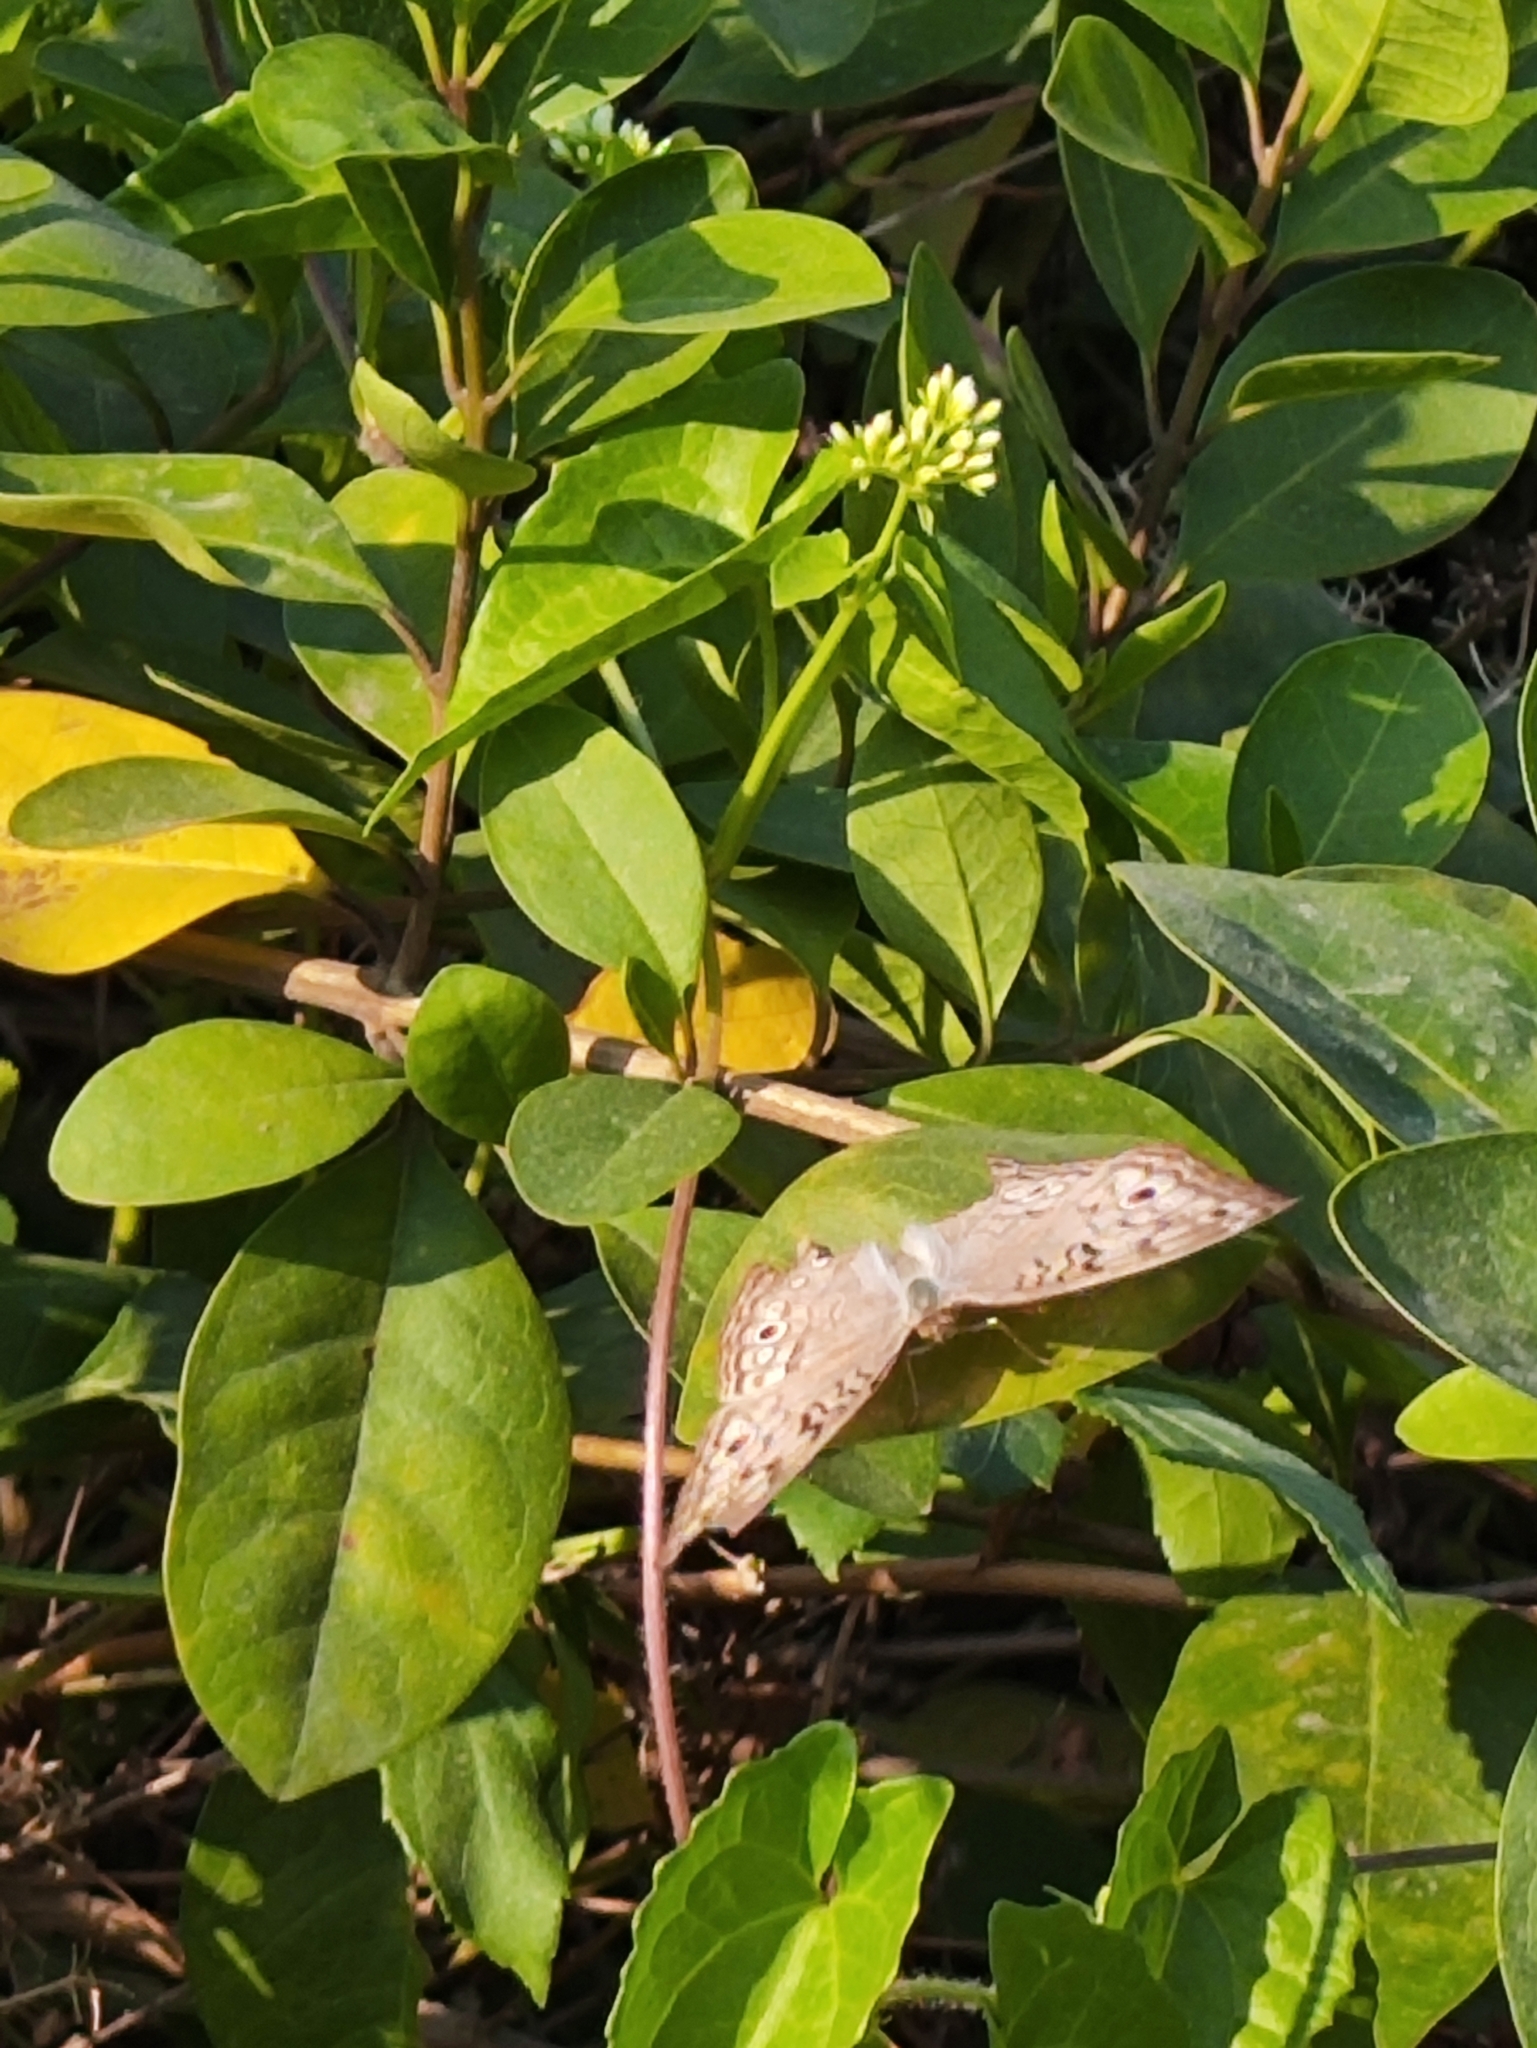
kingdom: Animalia
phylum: Arthropoda
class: Insecta
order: Lepidoptera
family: Nymphalidae
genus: Junonia
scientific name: Junonia atlites
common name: Grey pansy
